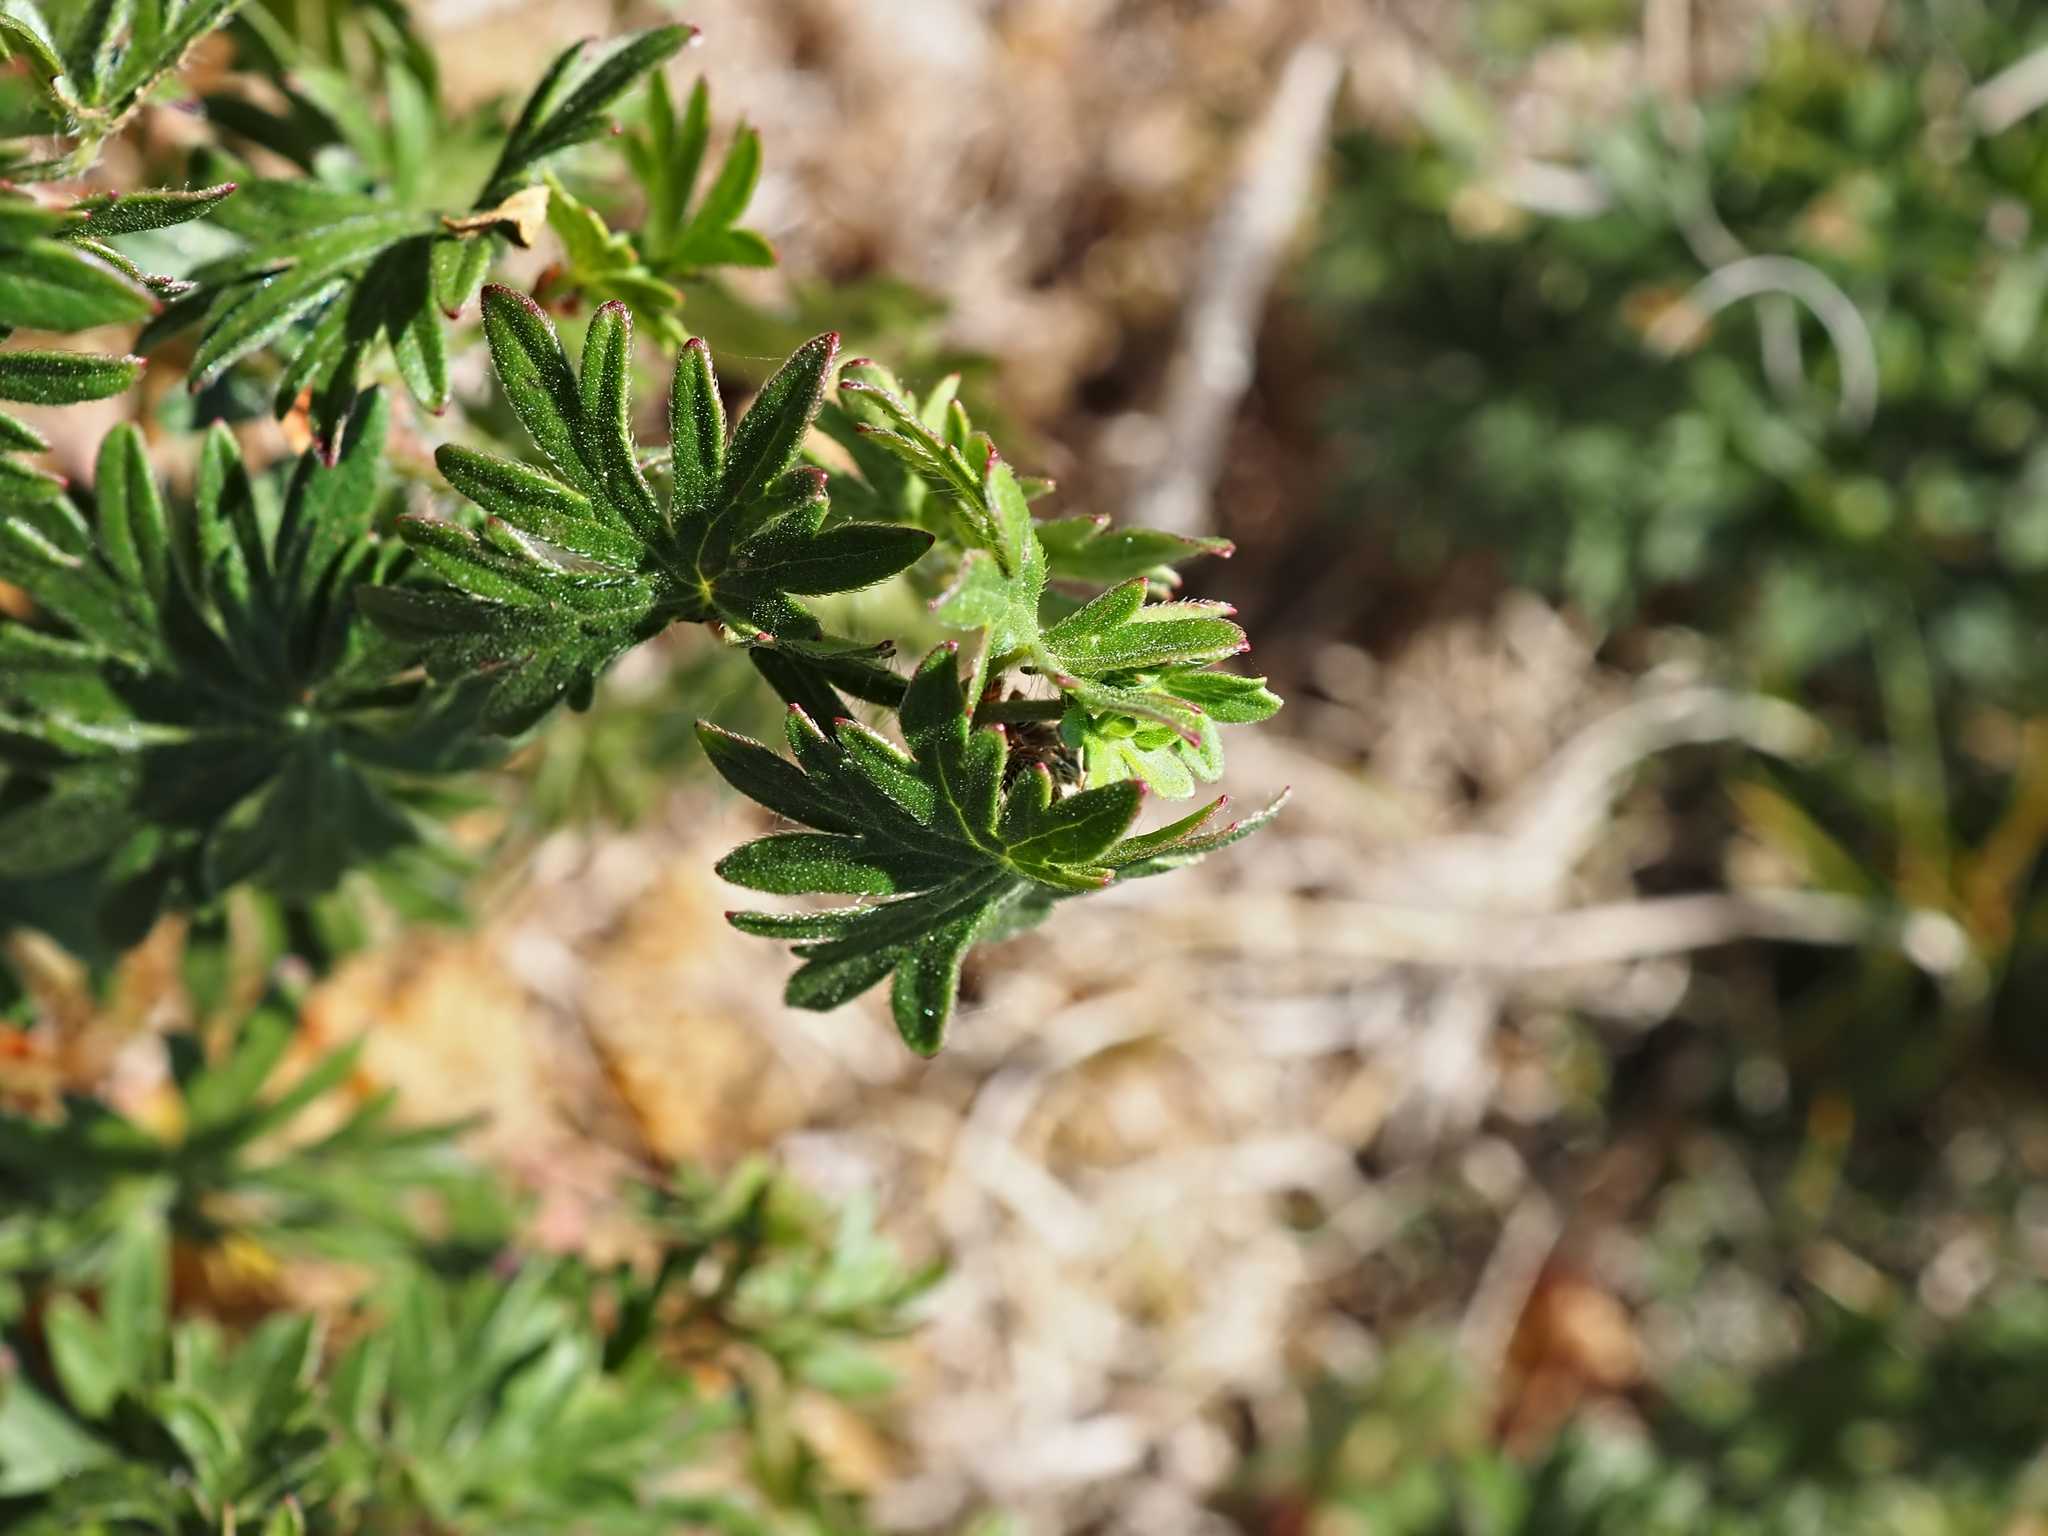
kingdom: Plantae
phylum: Tracheophyta
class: Magnoliopsida
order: Geraniales
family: Geraniaceae
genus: Geranium
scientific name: Geranium sanguineum
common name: Bloody crane's-bill
